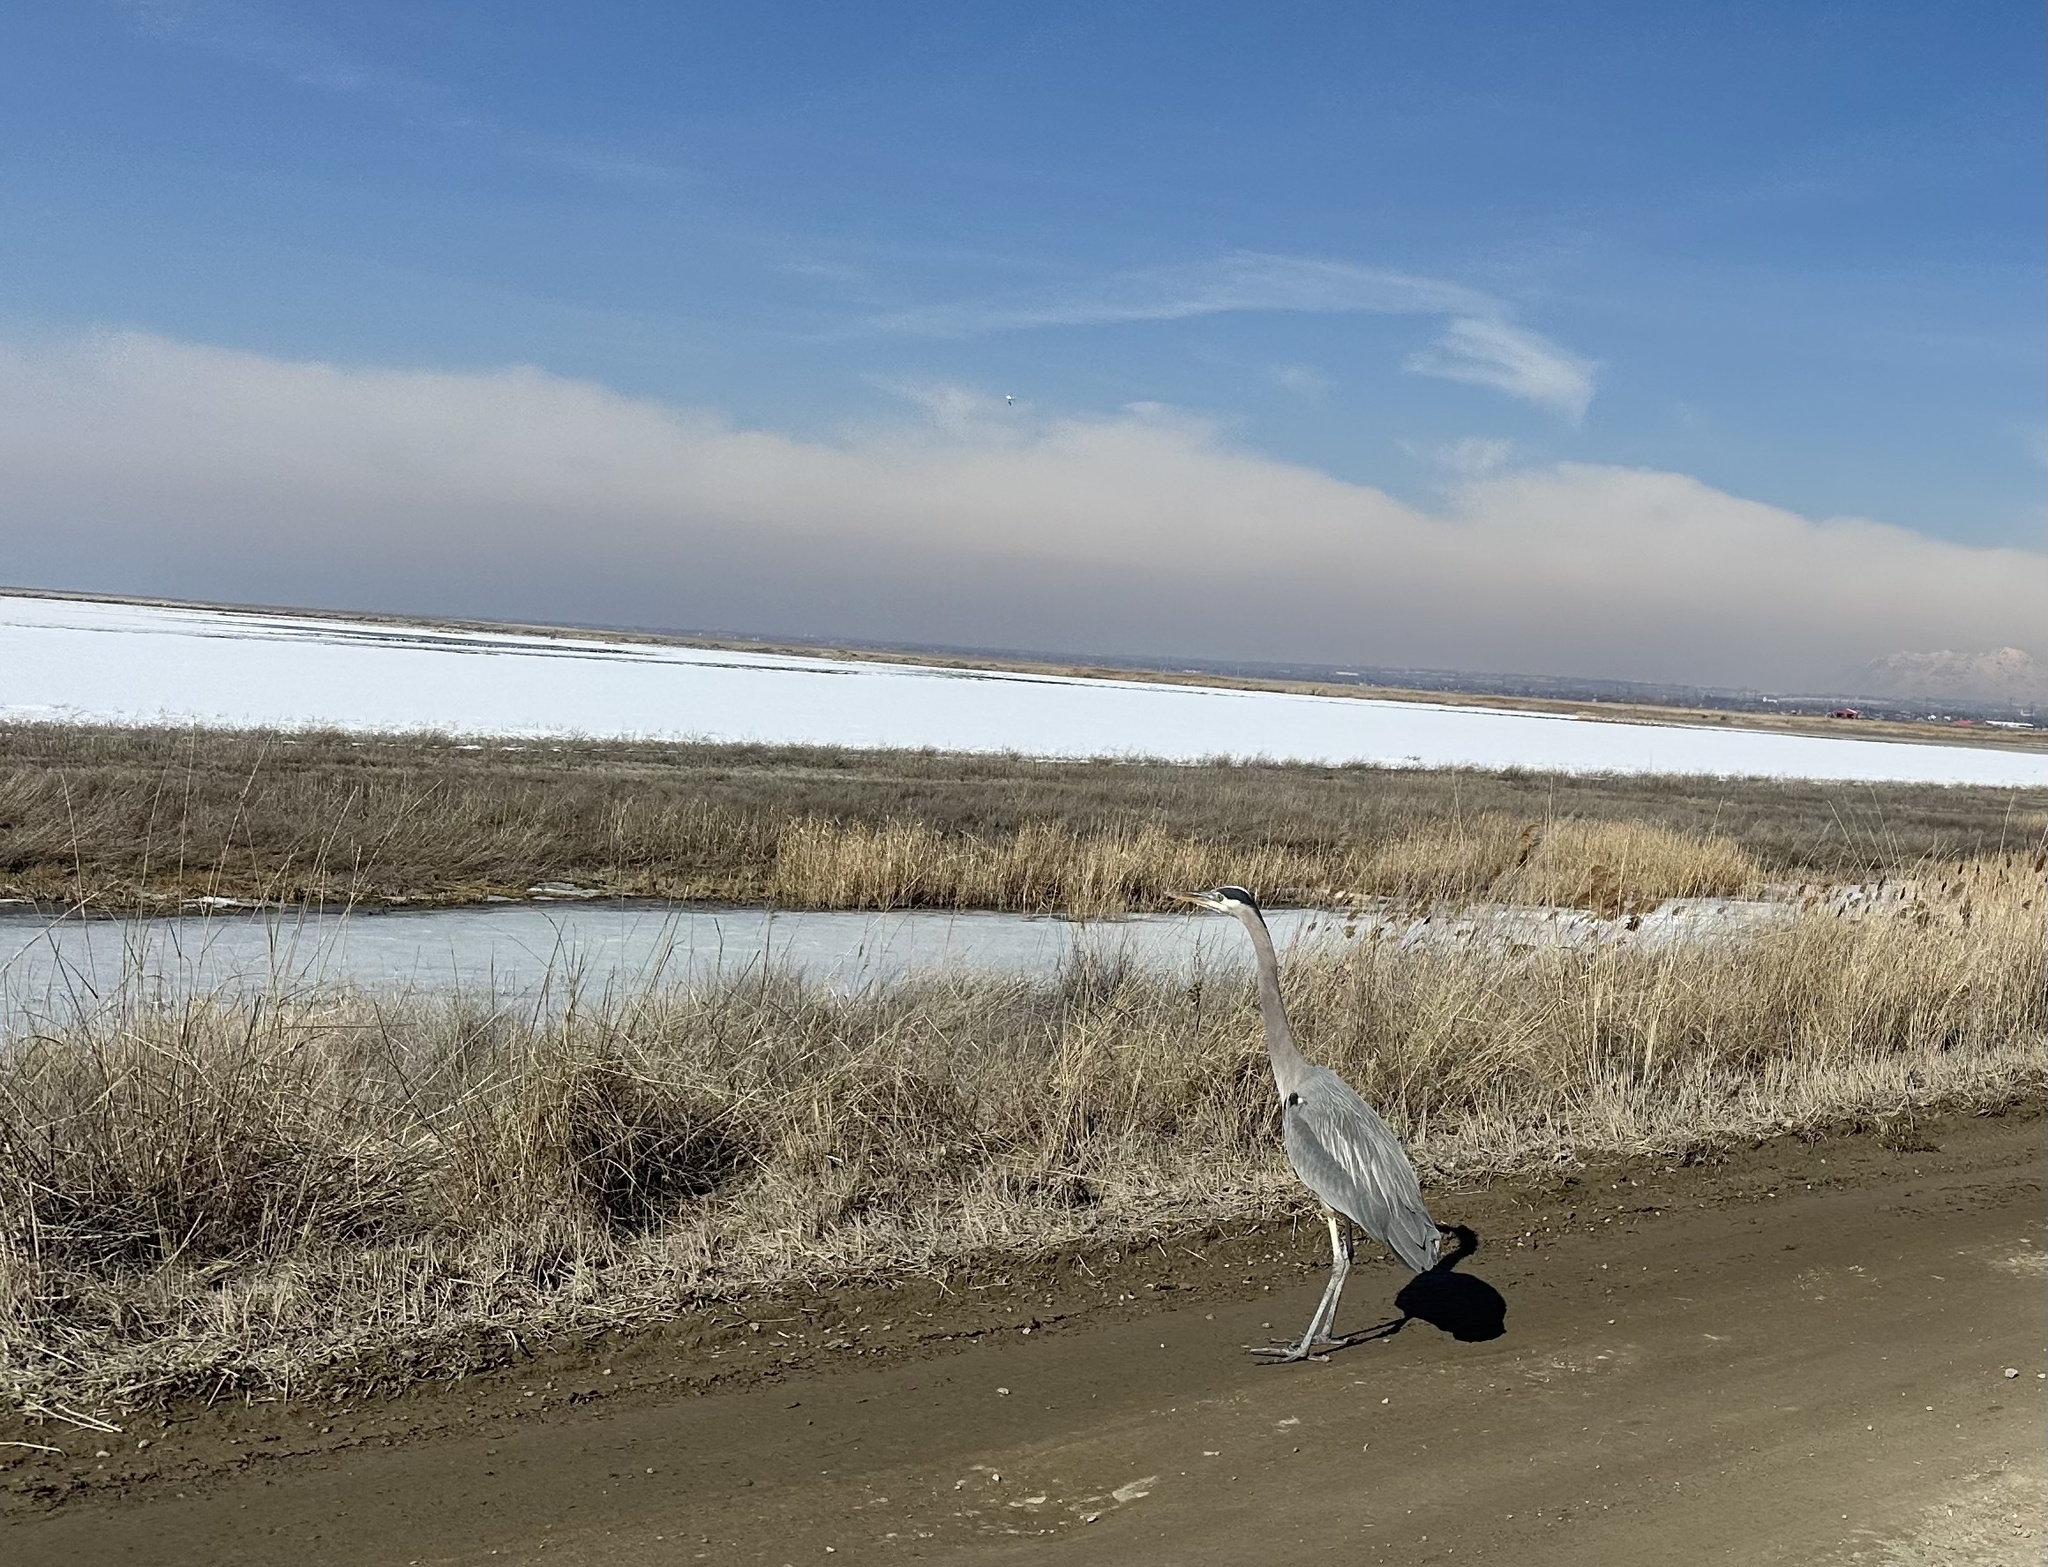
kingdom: Animalia
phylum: Chordata
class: Aves
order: Pelecaniformes
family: Ardeidae
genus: Ardea
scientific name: Ardea herodias
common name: Great blue heron
